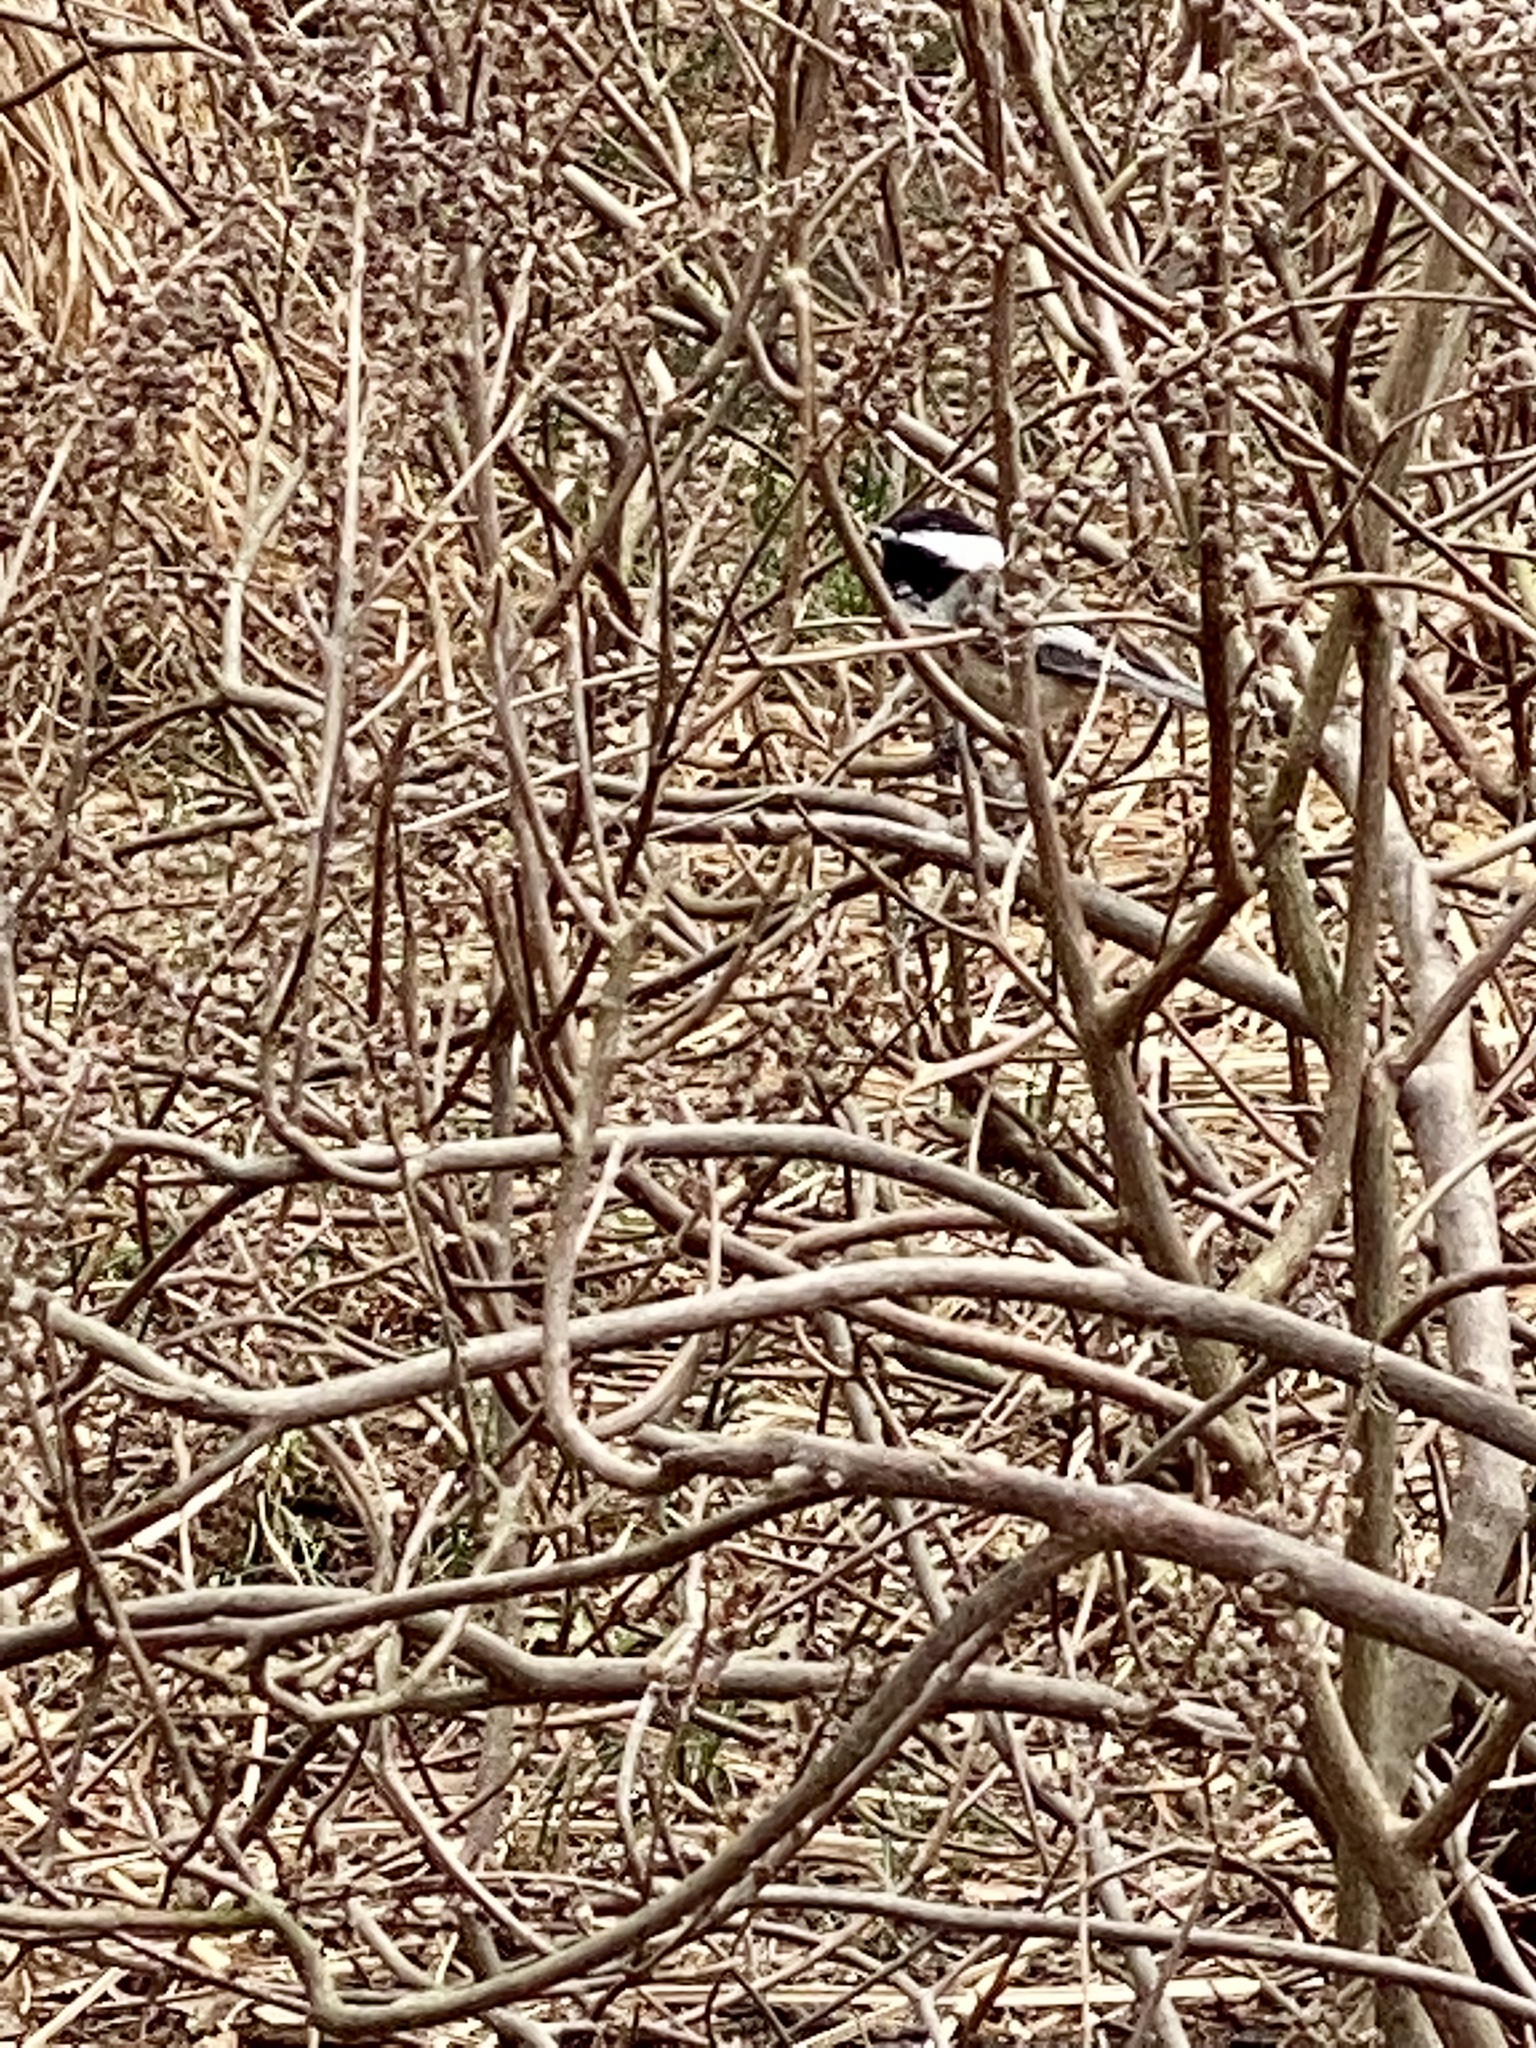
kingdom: Animalia
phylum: Chordata
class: Aves
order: Passeriformes
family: Paridae
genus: Poecile
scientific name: Poecile atricapillus
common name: Black-capped chickadee
